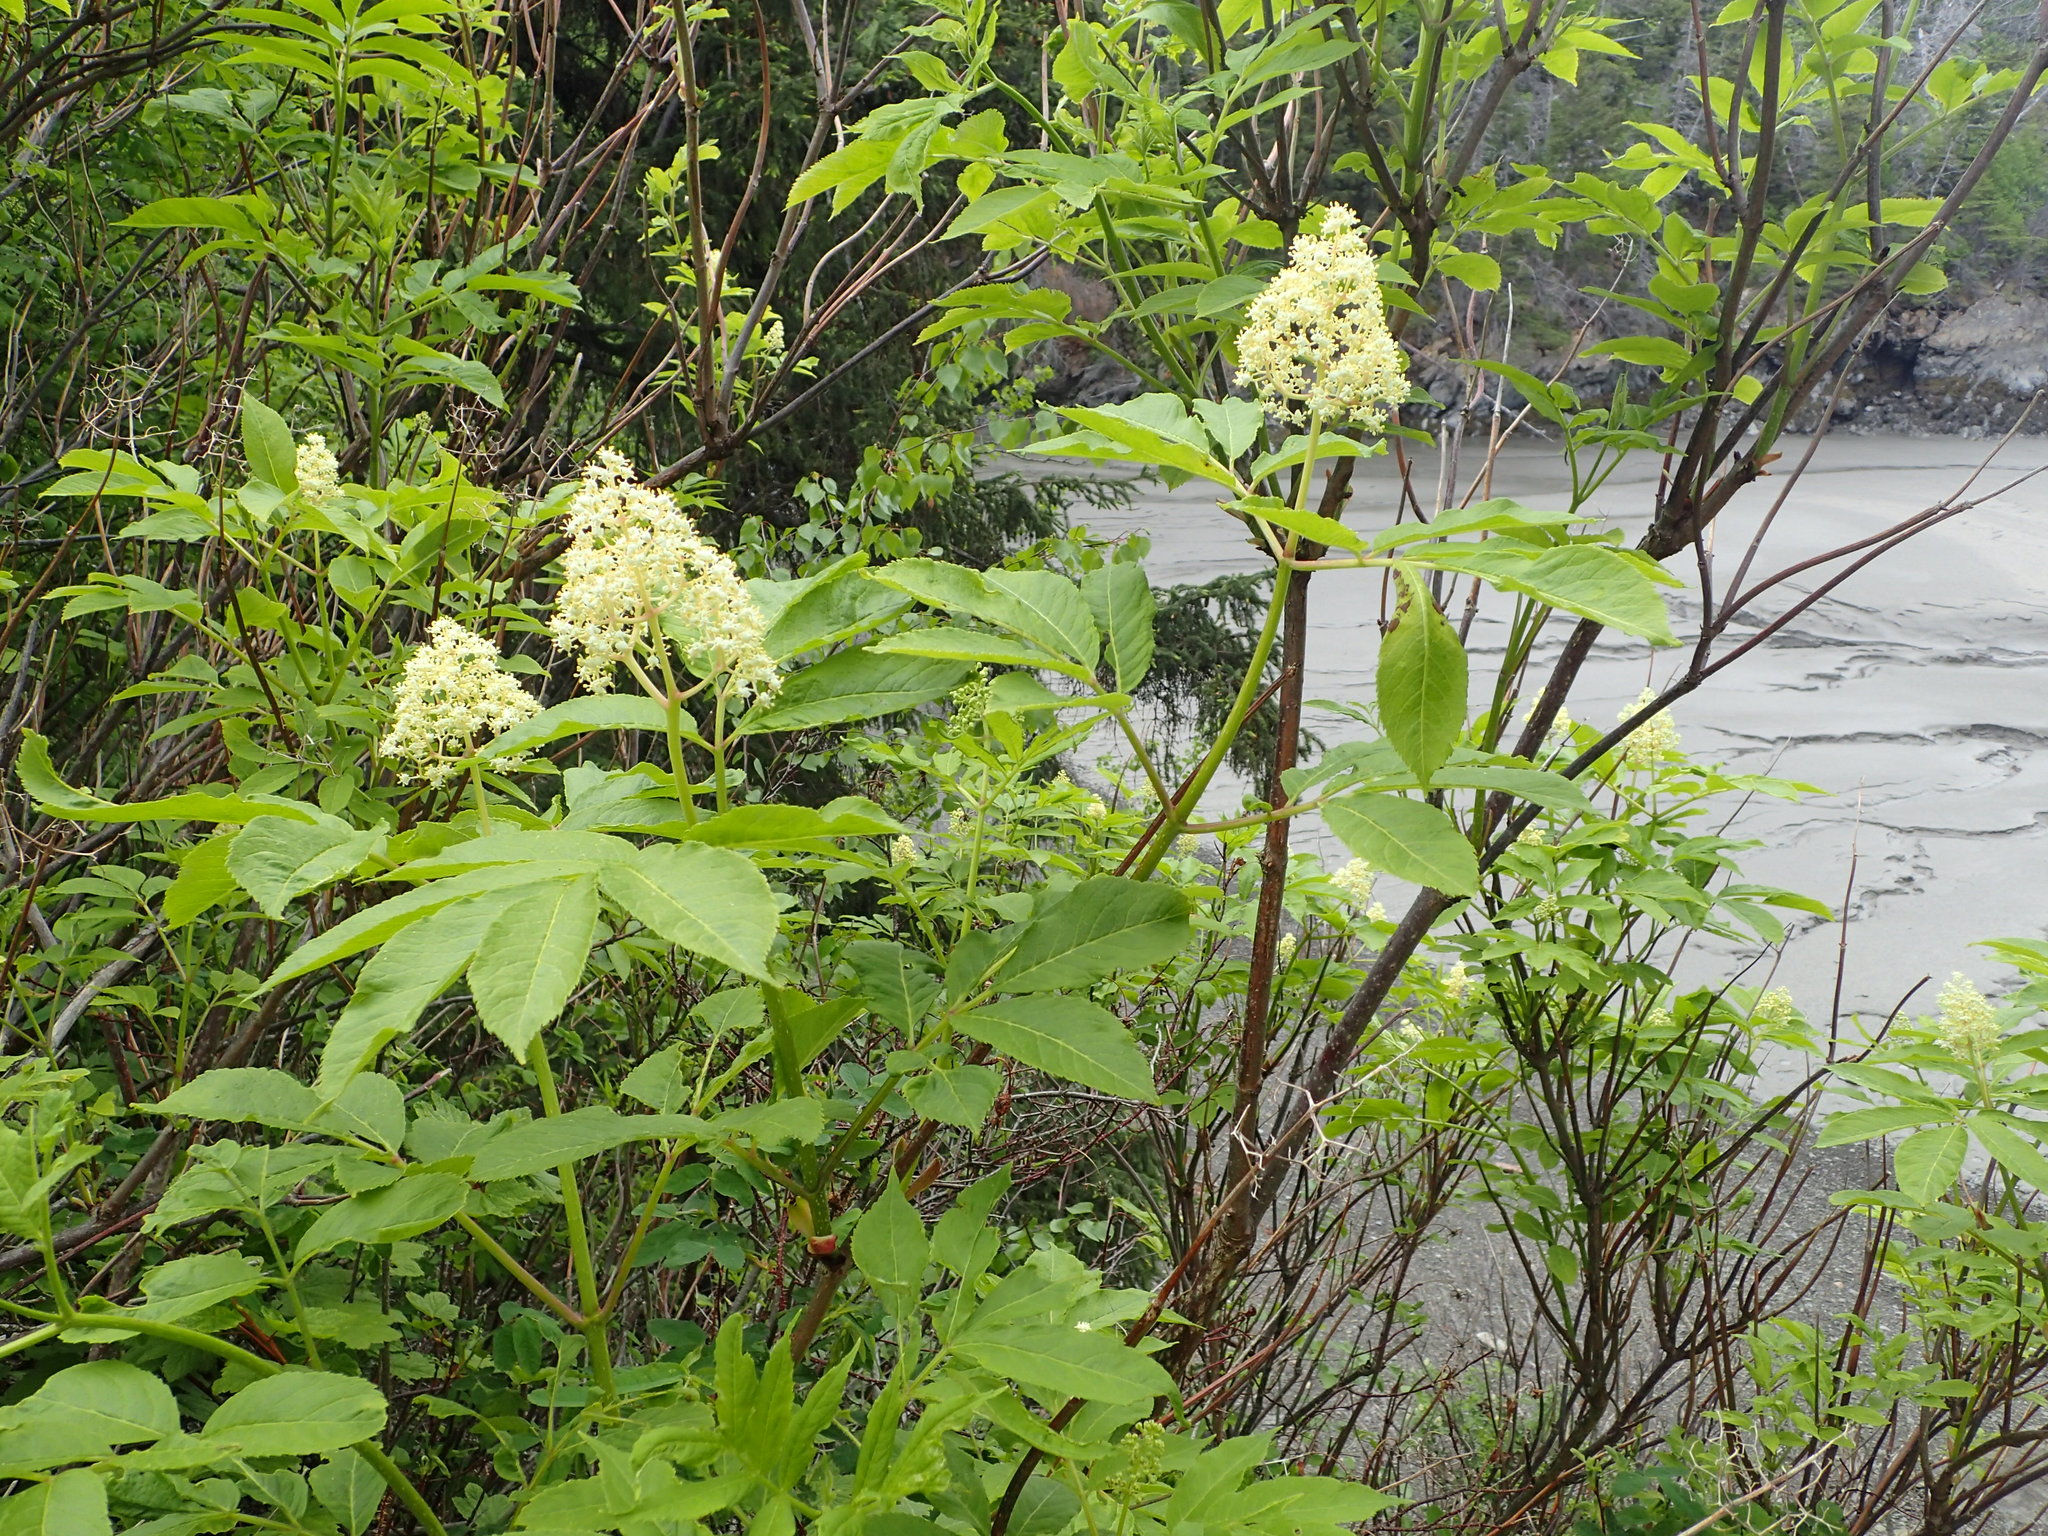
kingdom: Plantae
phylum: Tracheophyta
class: Magnoliopsida
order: Dipsacales
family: Viburnaceae
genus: Sambucus
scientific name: Sambucus racemosa
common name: Red-berried elder
